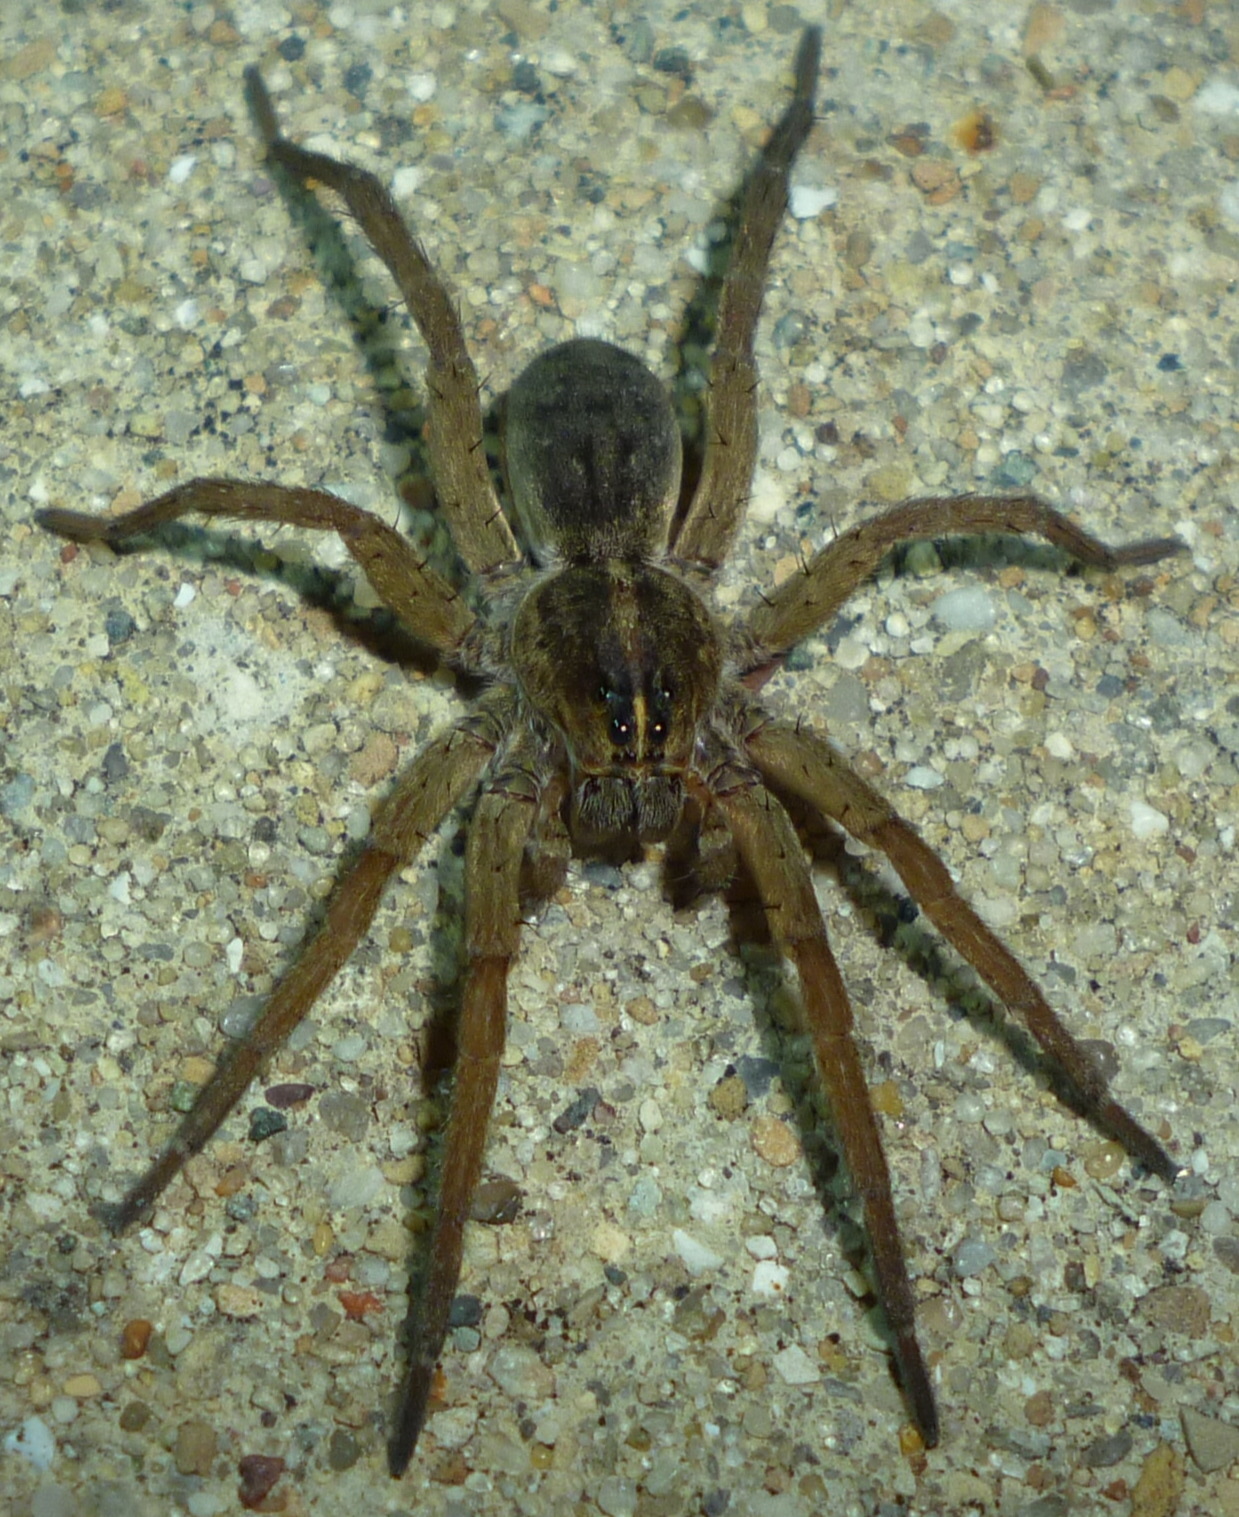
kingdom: Animalia
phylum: Arthropoda
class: Arachnida
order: Araneae
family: Lycosidae
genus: Tigrosa
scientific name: Tigrosa helluo
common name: Wetland giant wolf spider
